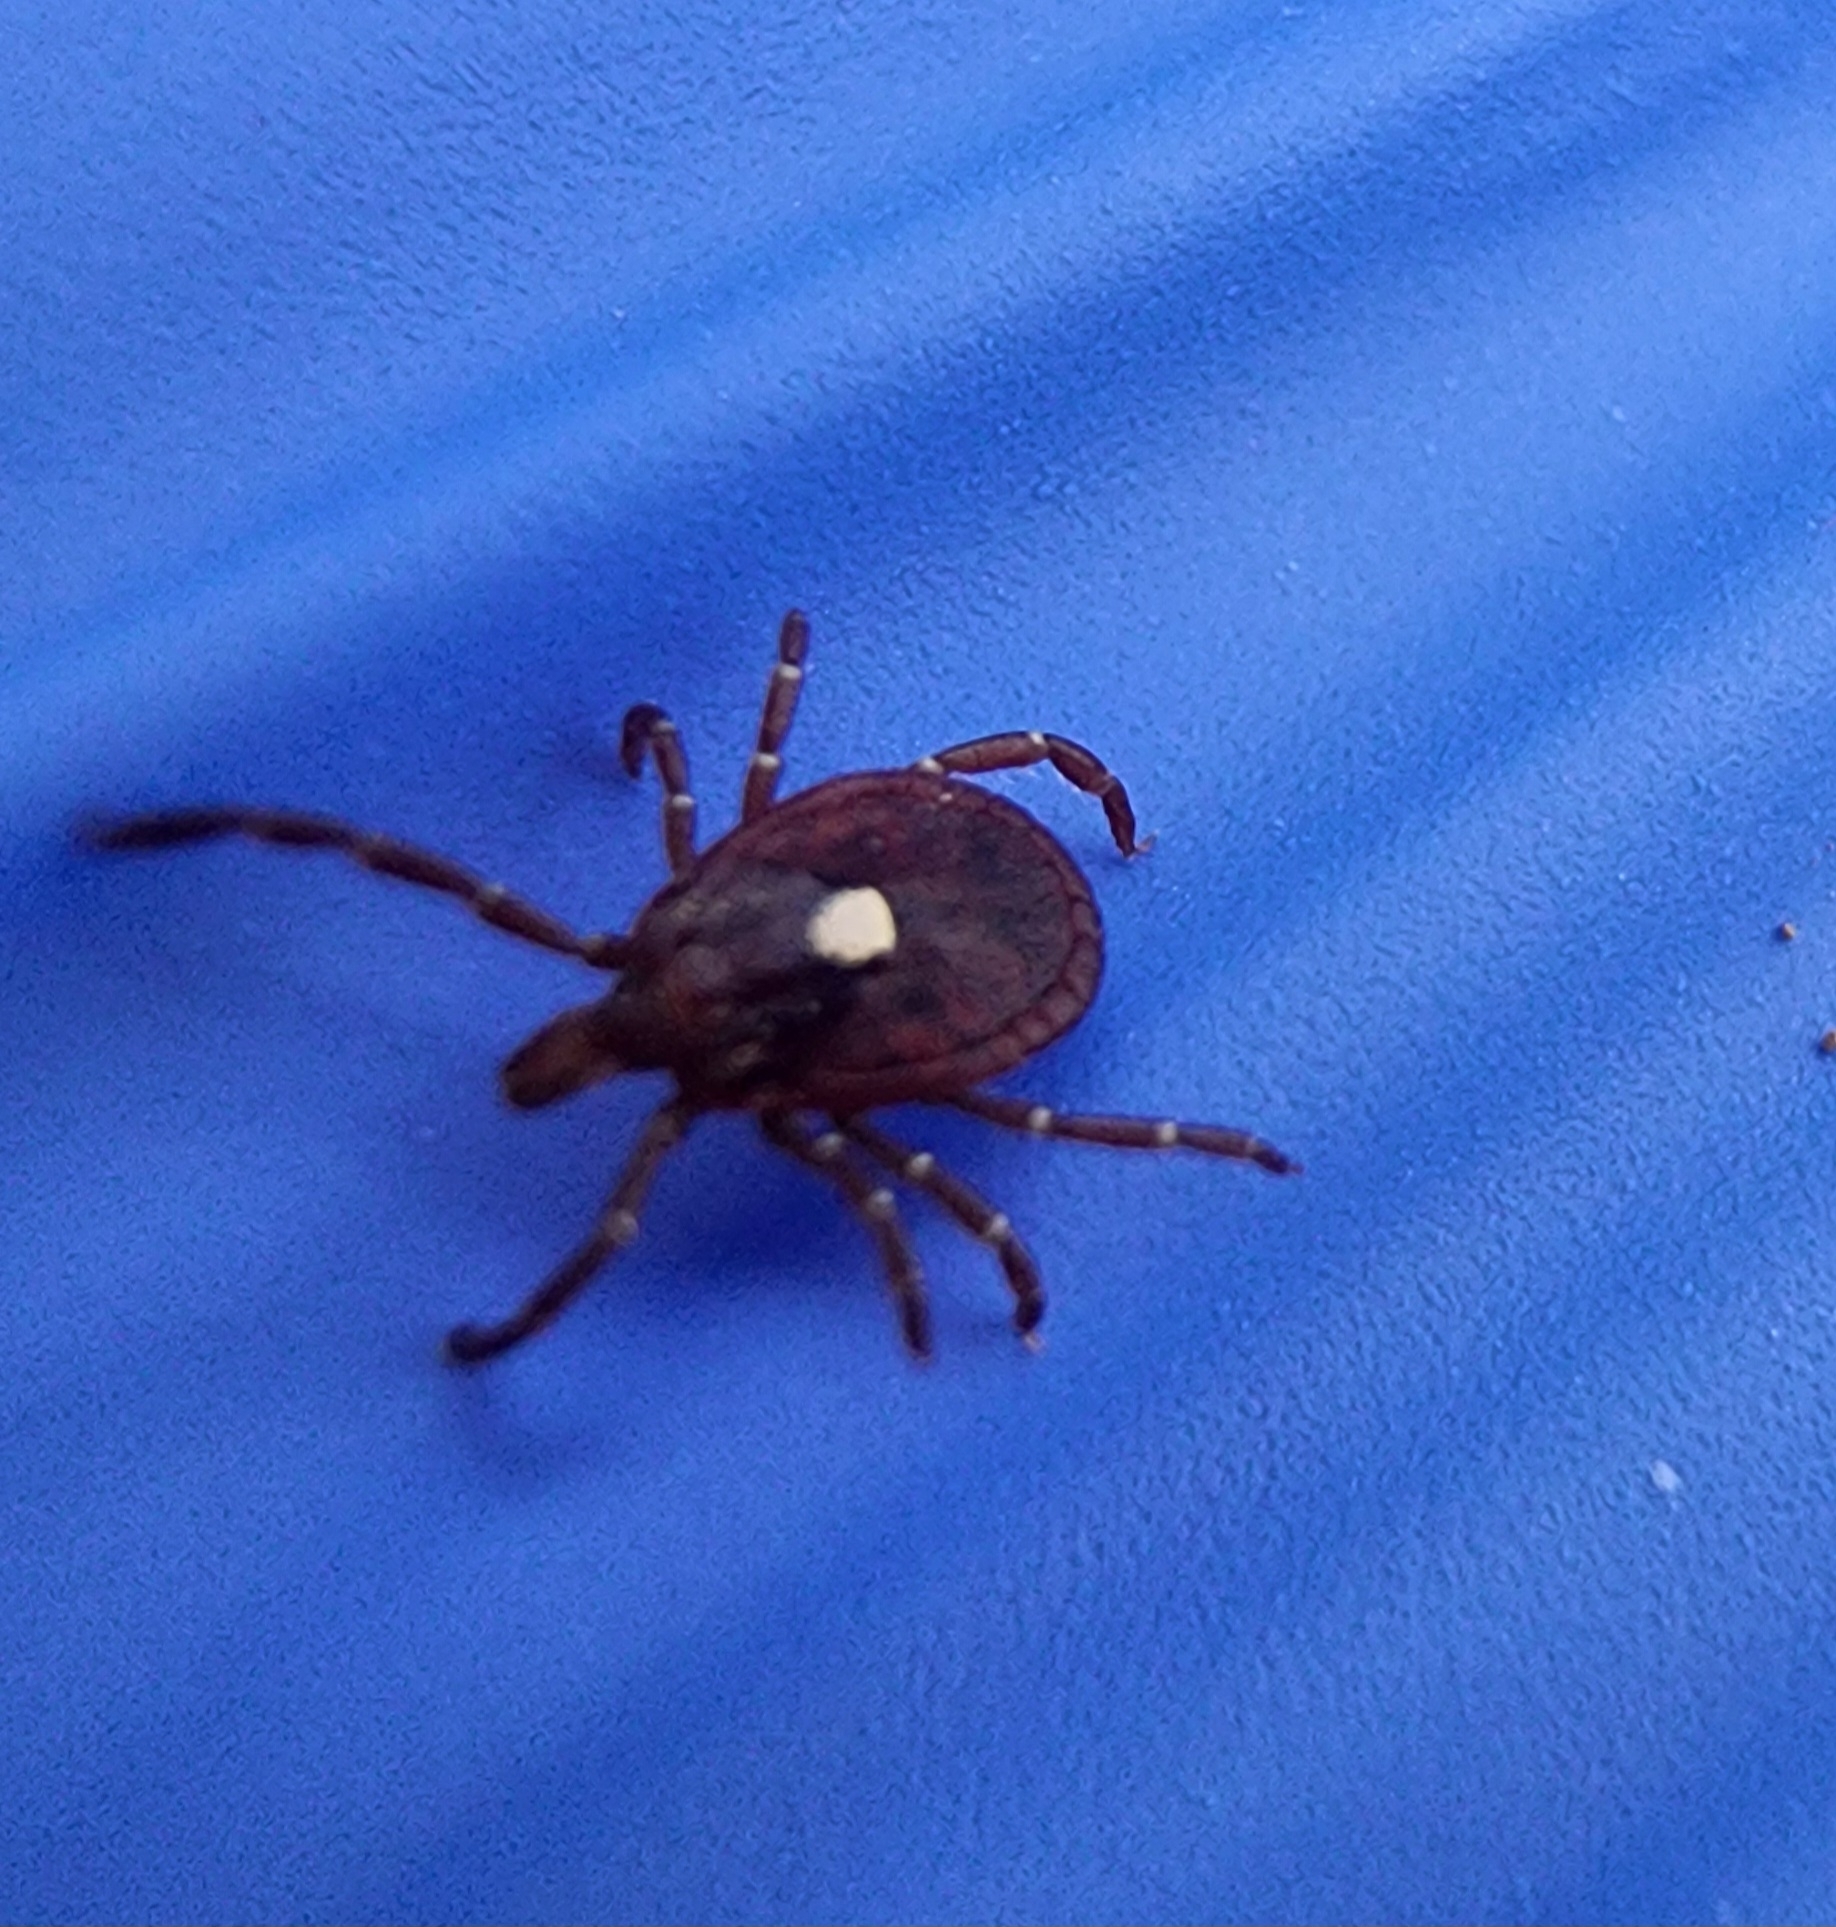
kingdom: Animalia
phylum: Arthropoda
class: Arachnida
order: Ixodida
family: Ixodidae
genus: Amblyomma
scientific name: Amblyomma americanum
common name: Lone star tick
